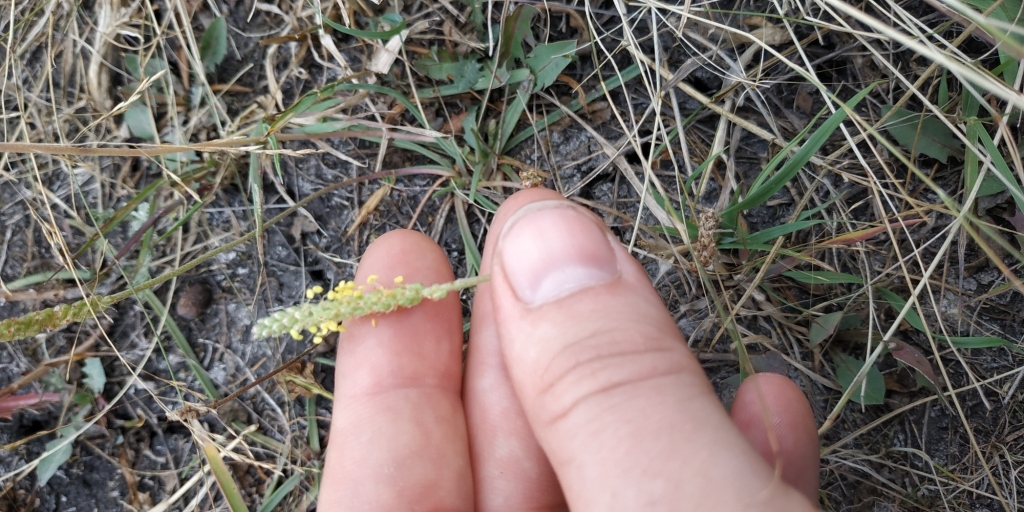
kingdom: Plantae
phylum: Tracheophyta
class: Magnoliopsida
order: Lamiales
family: Plantaginaceae
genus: Plantago
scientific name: Plantago salsa
